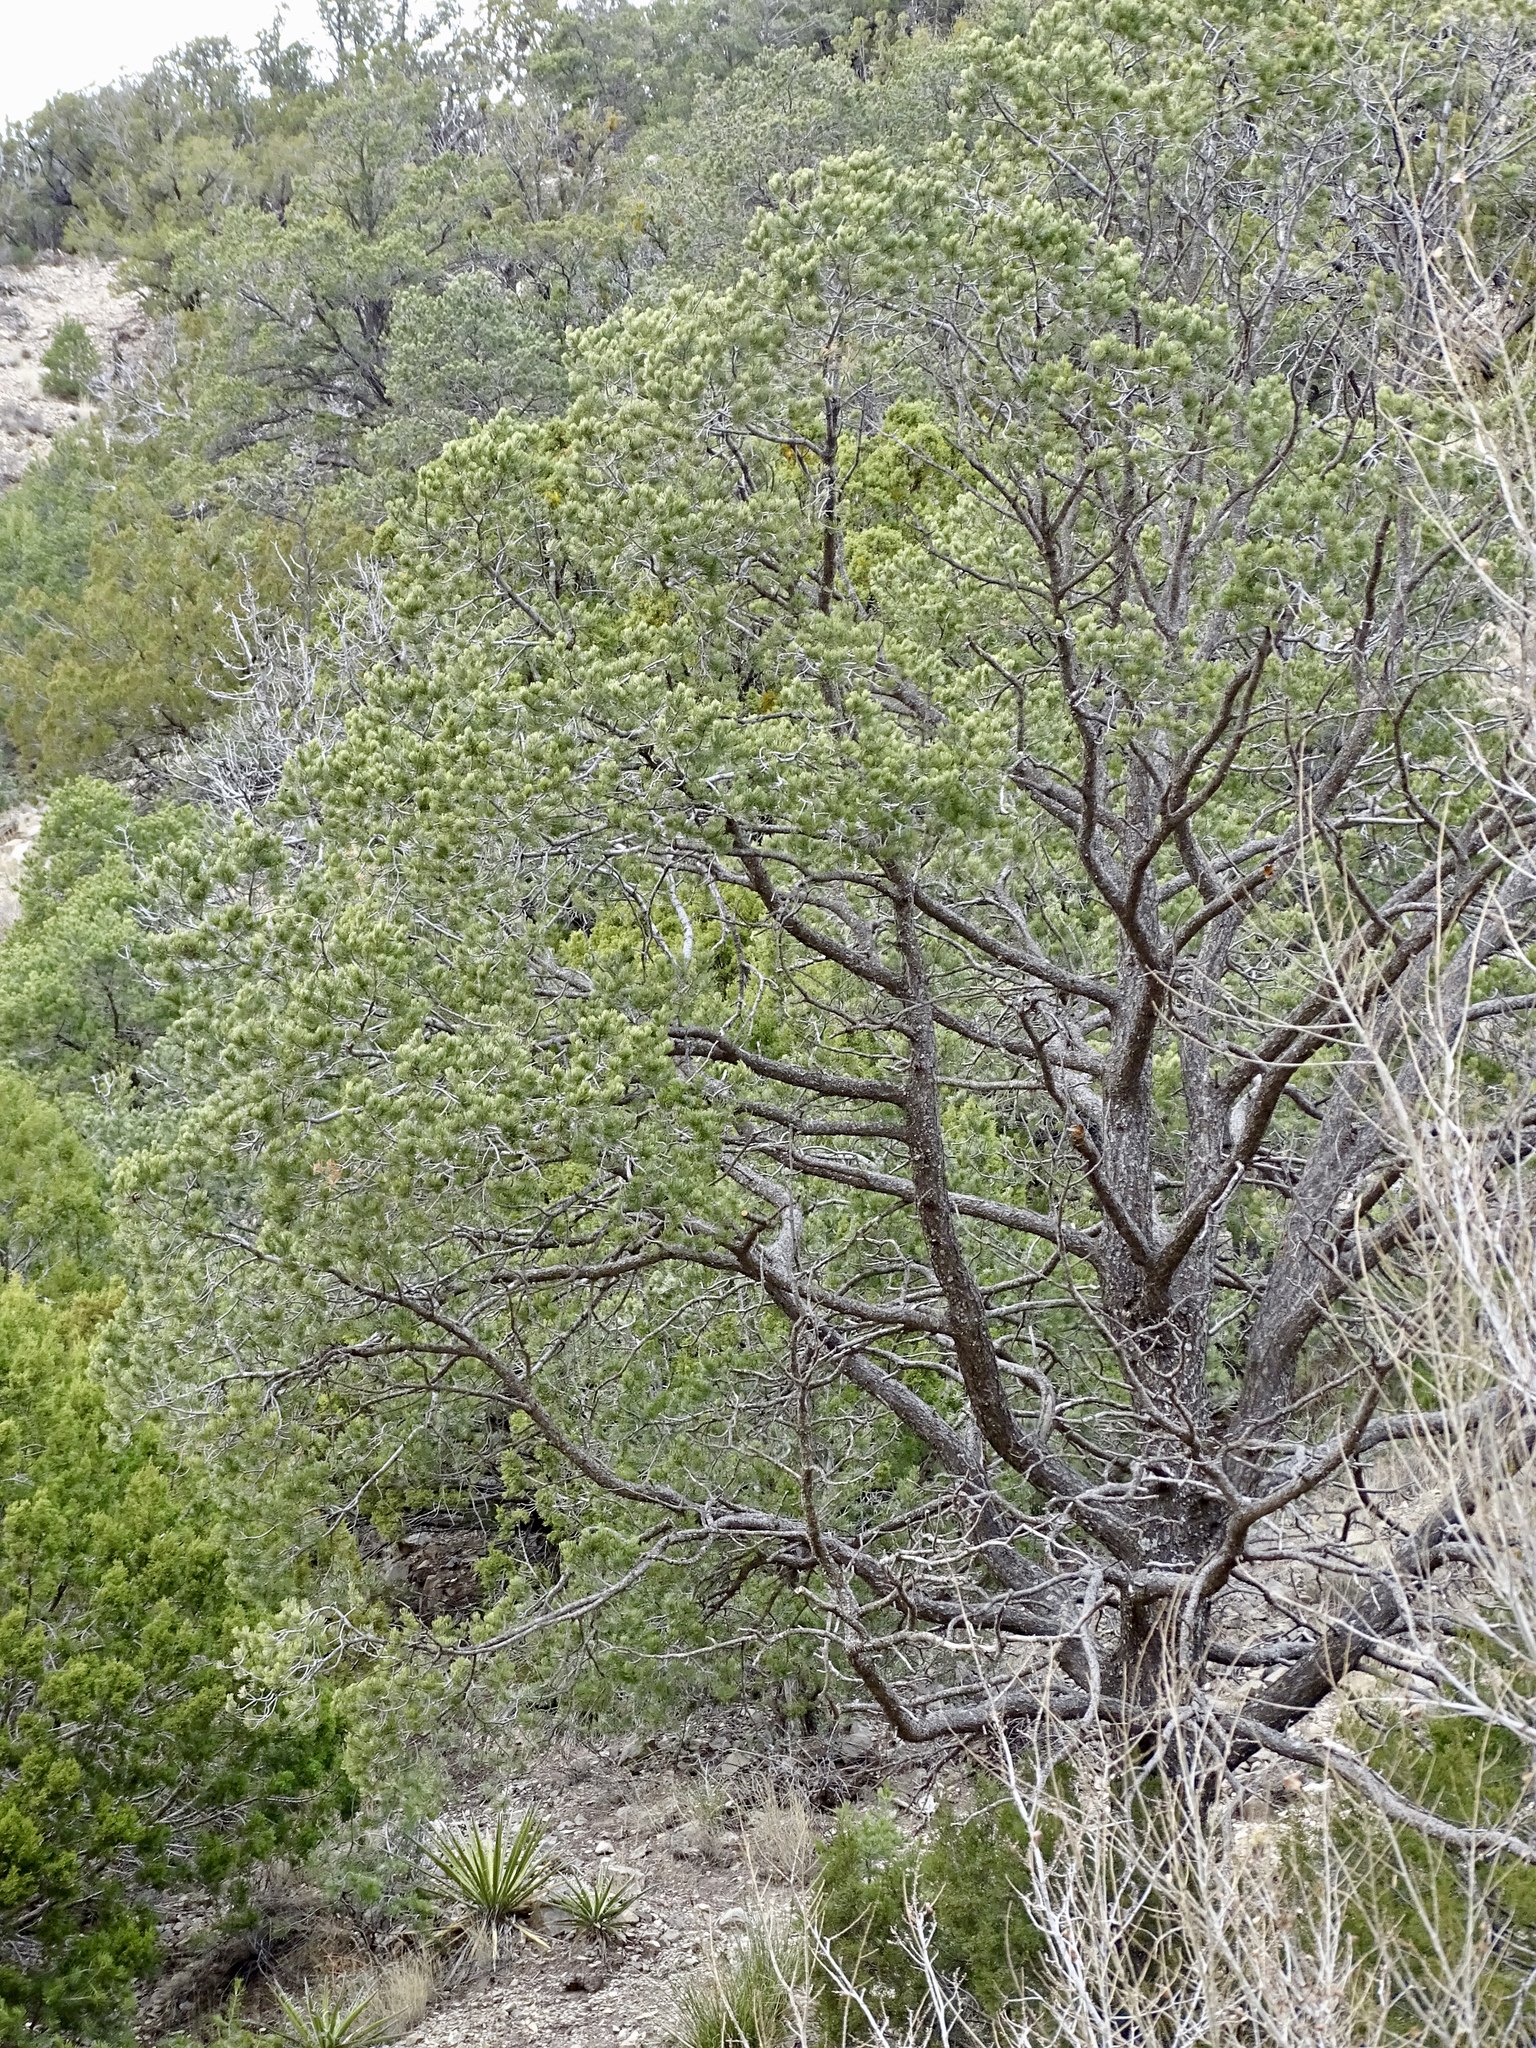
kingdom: Plantae
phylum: Tracheophyta
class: Pinopsida
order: Pinales
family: Pinaceae
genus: Pinus
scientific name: Pinus edulis
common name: Colorado pinyon
